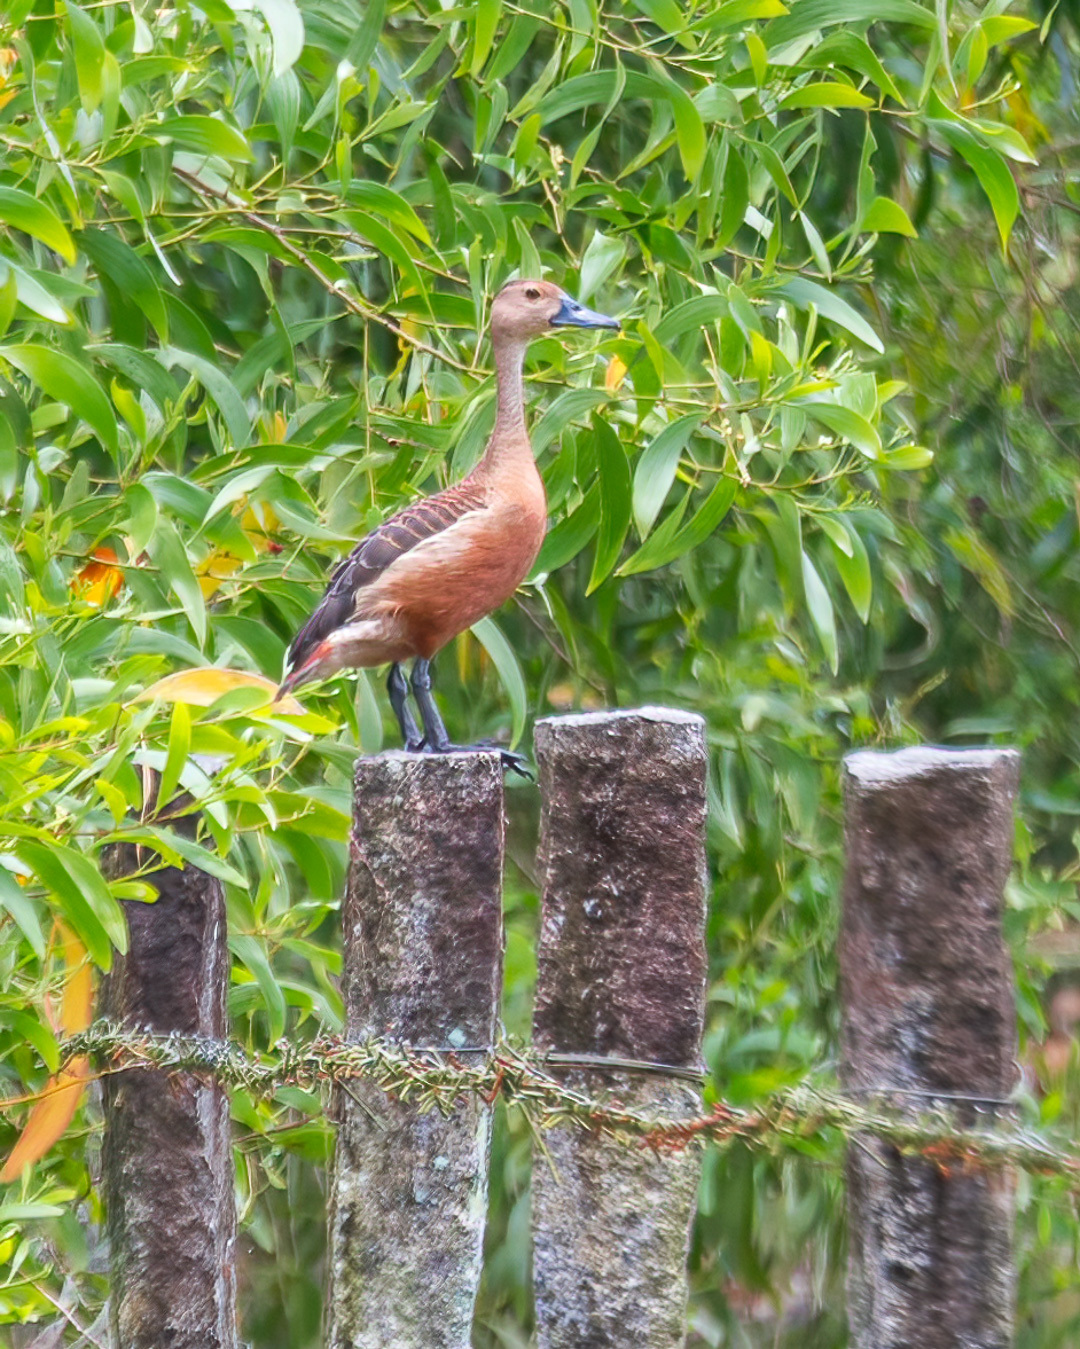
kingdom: Animalia
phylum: Chordata
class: Aves
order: Anseriformes
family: Anatidae
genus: Dendrocygna
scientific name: Dendrocygna javanica
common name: Lesser whistling-duck
